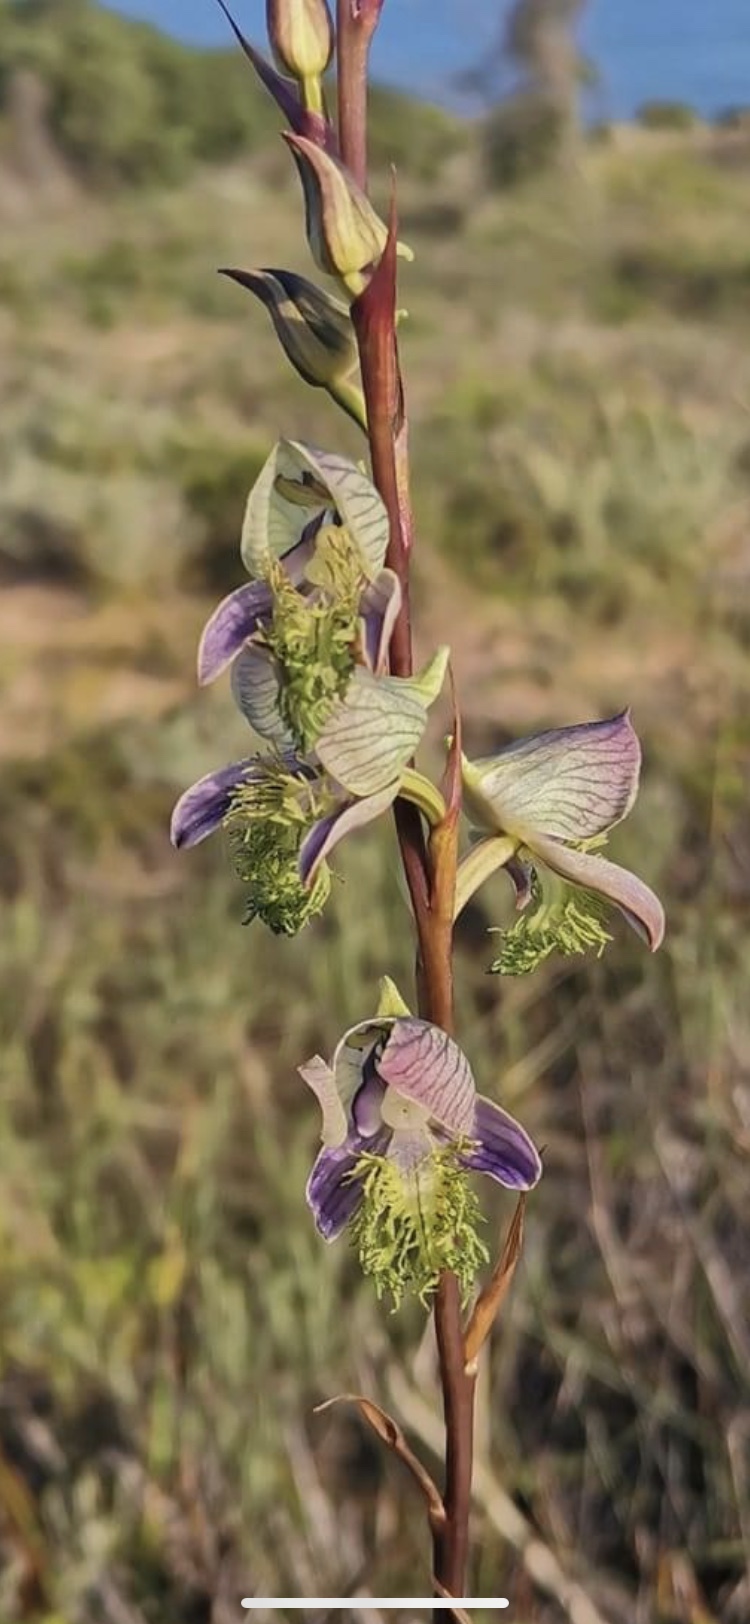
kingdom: Plantae
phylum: Tracheophyta
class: Liliopsida
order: Asparagales
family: Orchidaceae
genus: Disa
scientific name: Disa lugens
